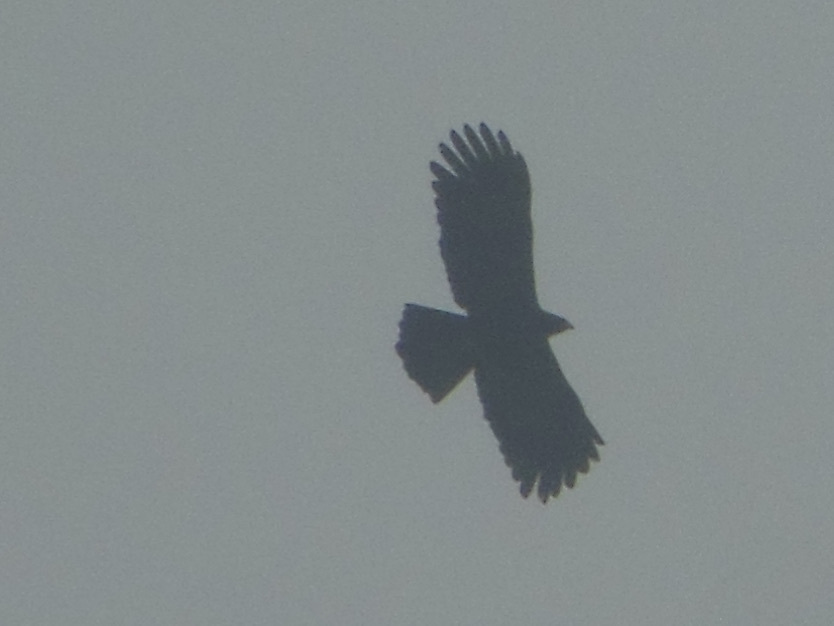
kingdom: Animalia
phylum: Chordata
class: Aves
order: Accipitriformes
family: Accipitridae
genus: Ictinaetus
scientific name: Ictinaetus malayensis
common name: Black eagle
